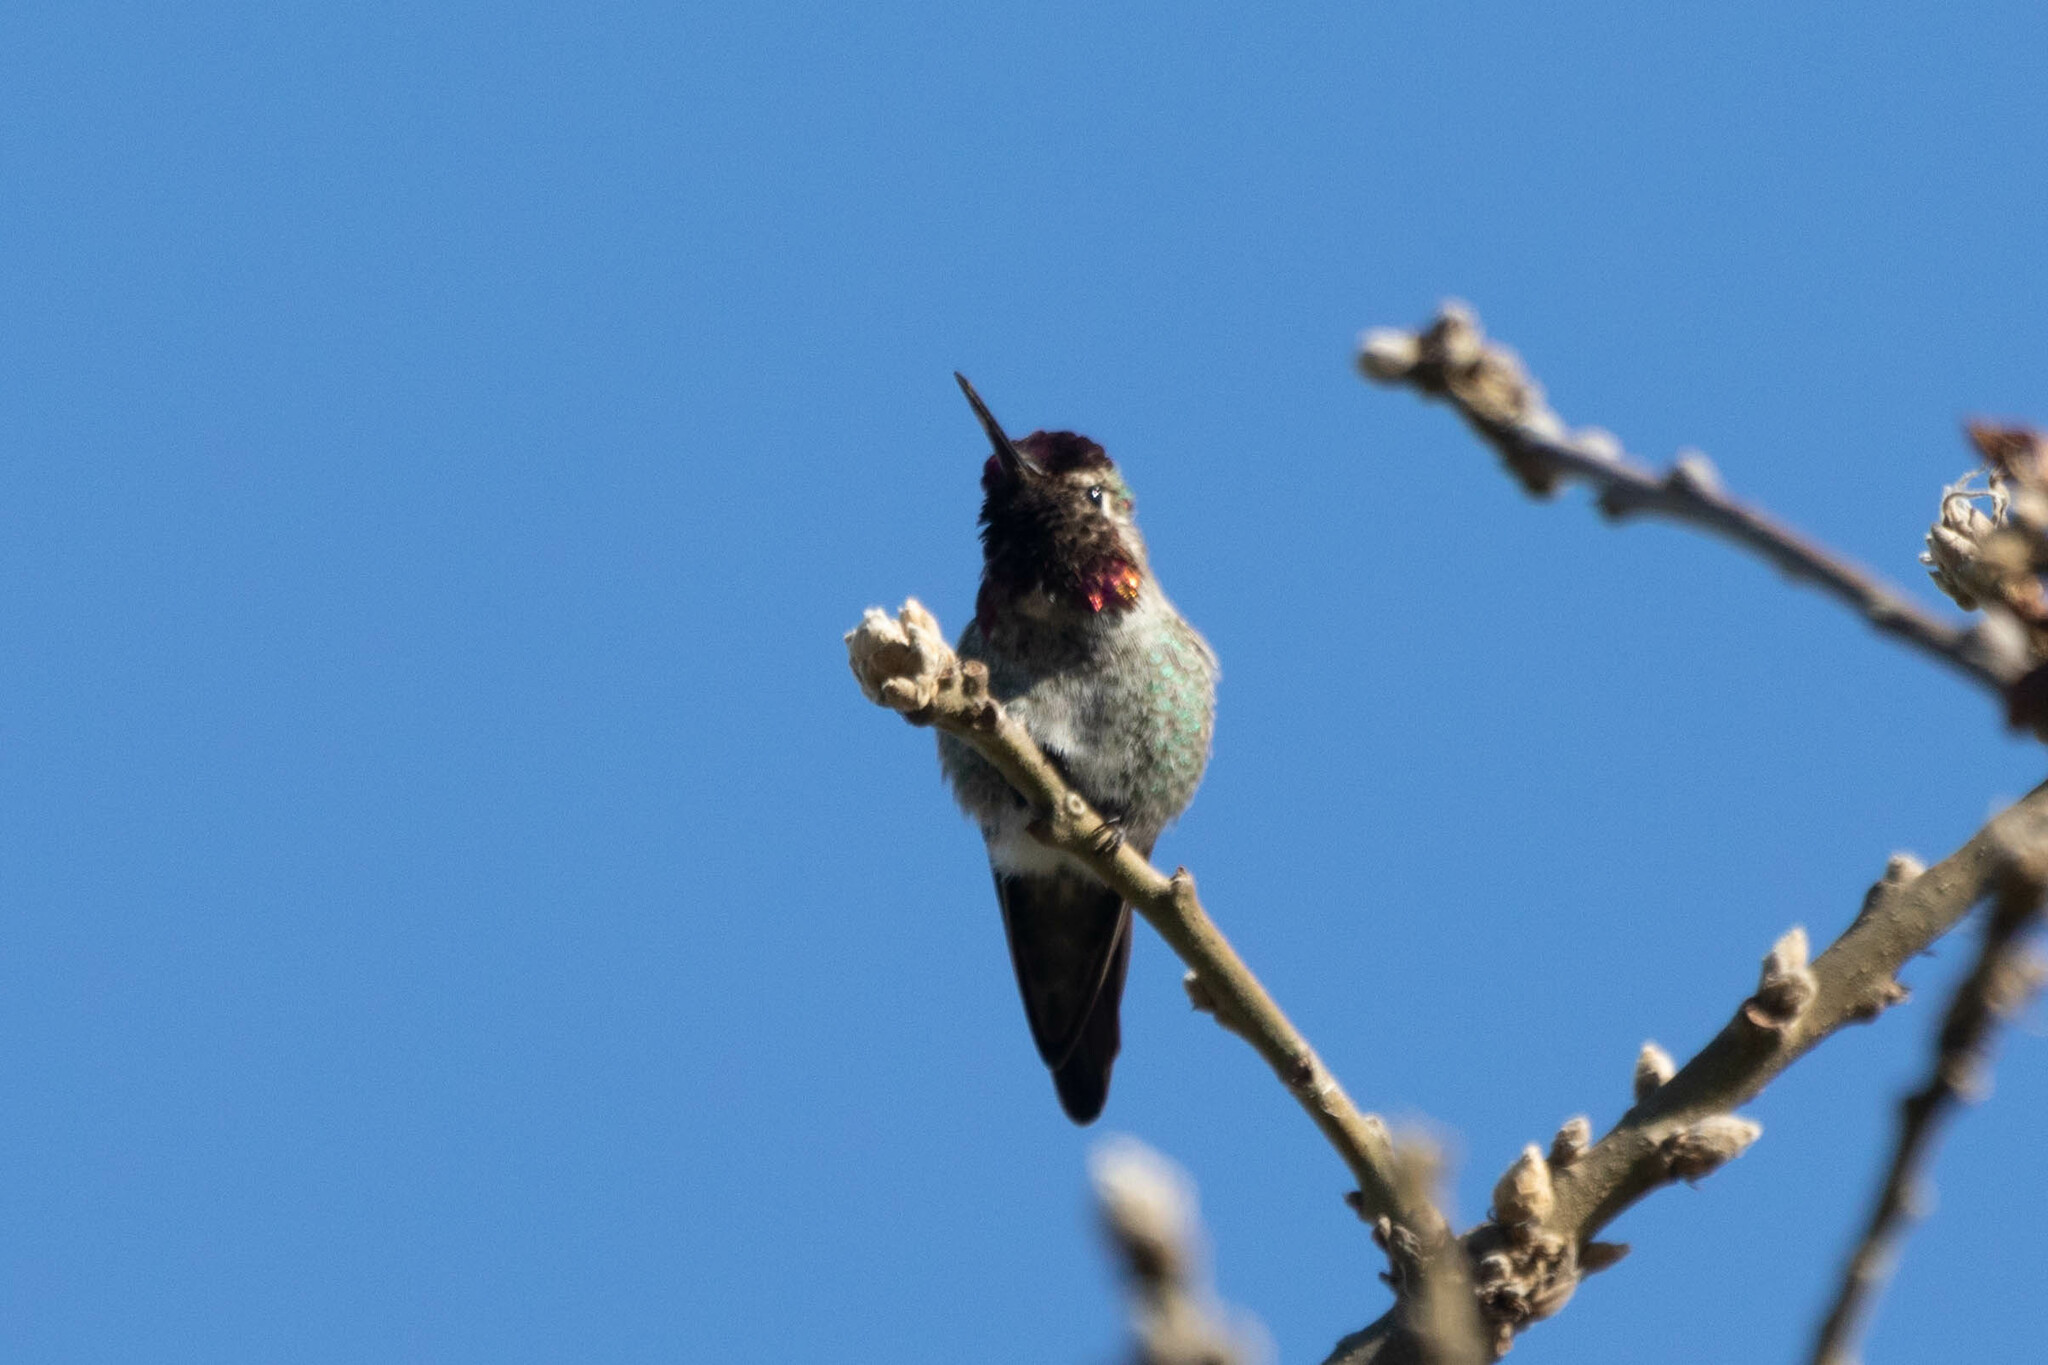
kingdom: Animalia
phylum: Chordata
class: Aves
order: Apodiformes
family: Trochilidae
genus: Calypte
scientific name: Calypte anna
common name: Anna's hummingbird
